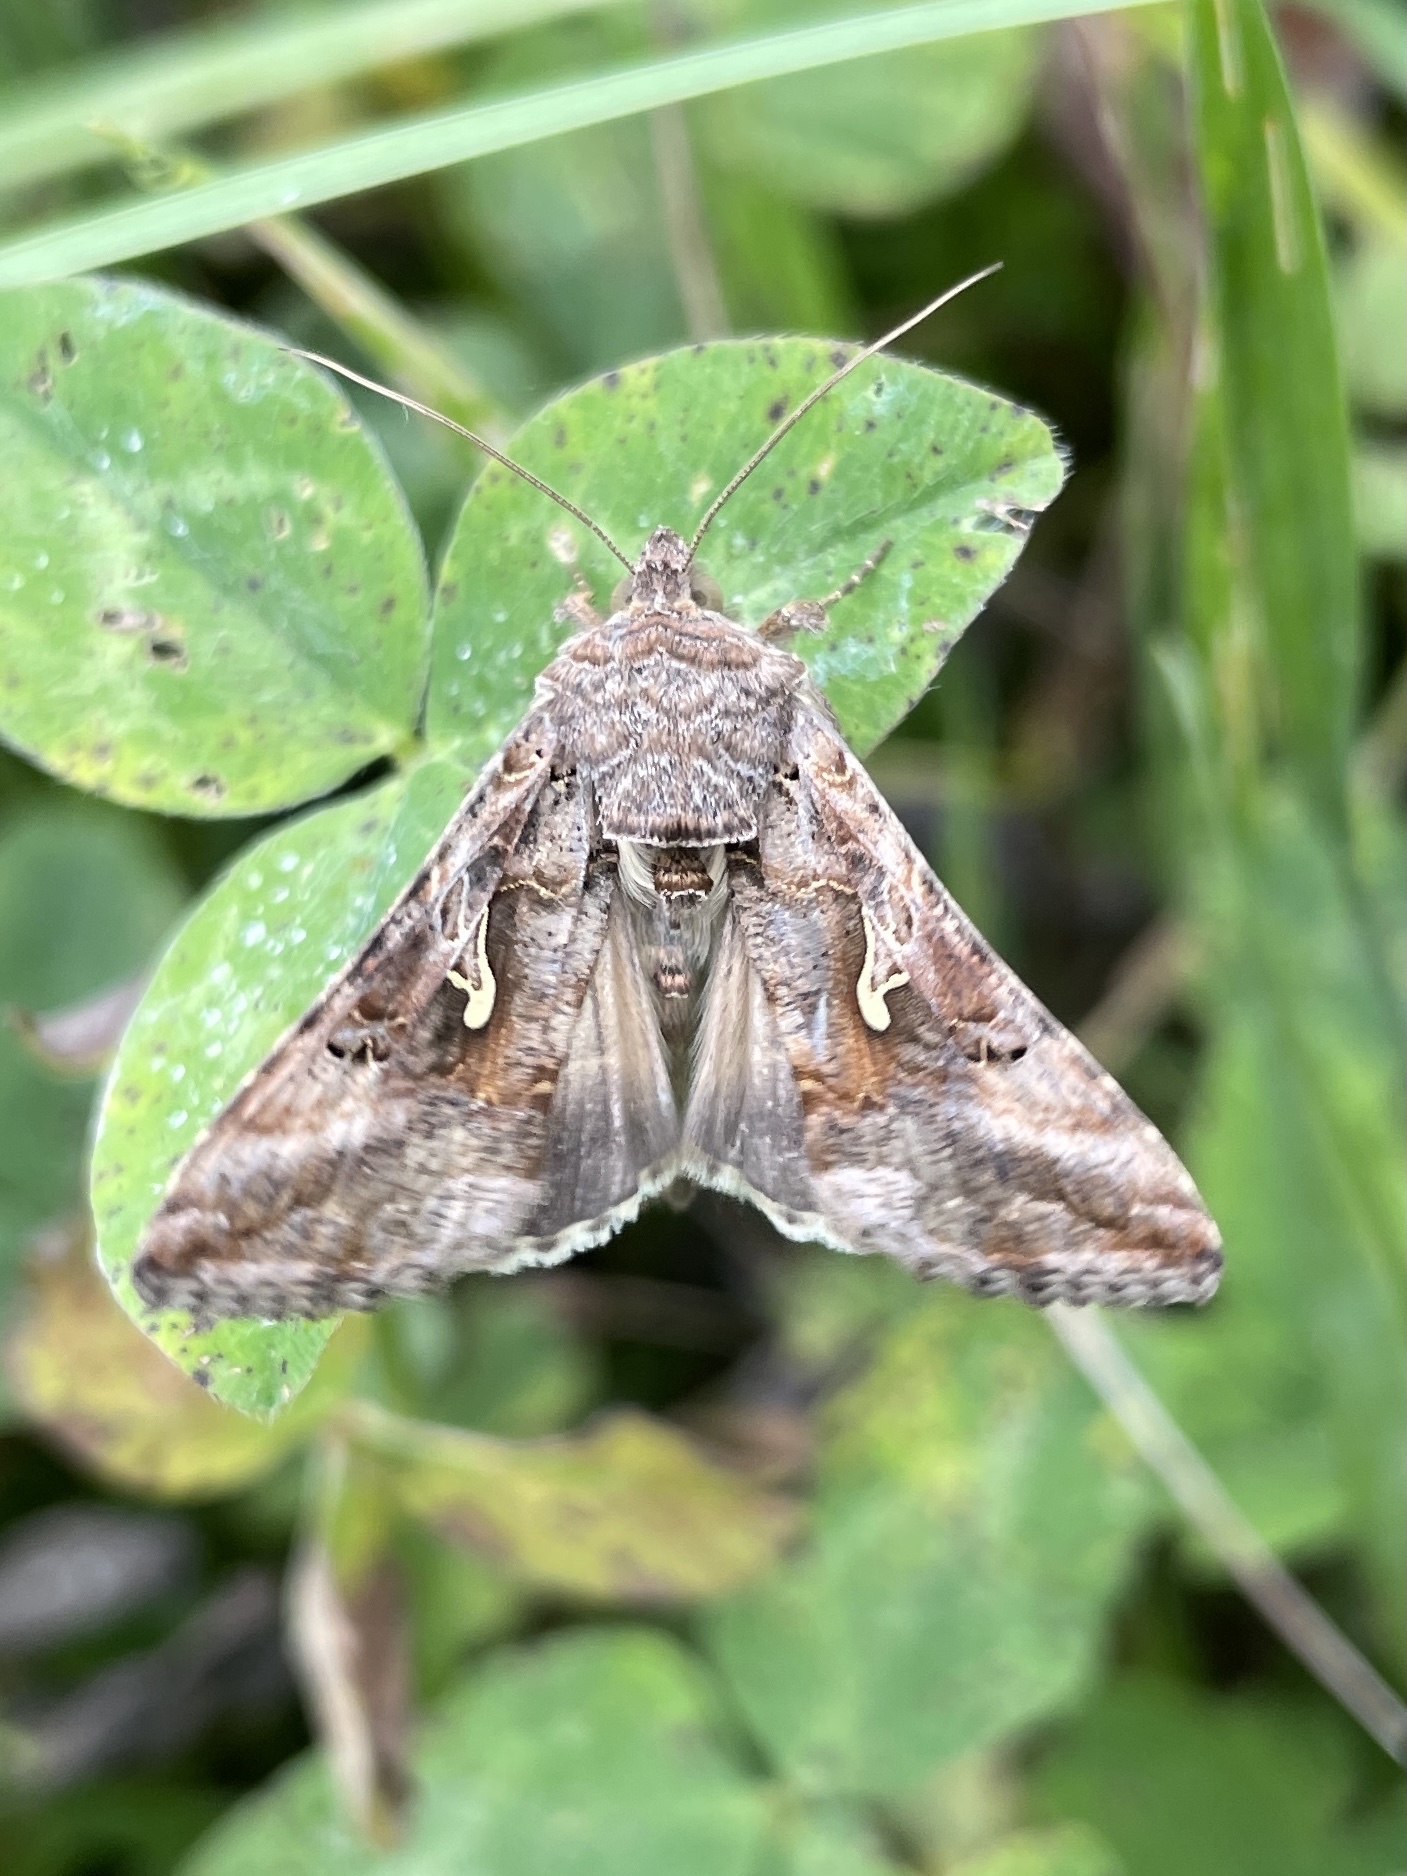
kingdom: Animalia
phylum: Arthropoda
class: Insecta
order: Lepidoptera
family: Noctuidae
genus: Autographa
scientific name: Autographa gamma
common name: Silver y
